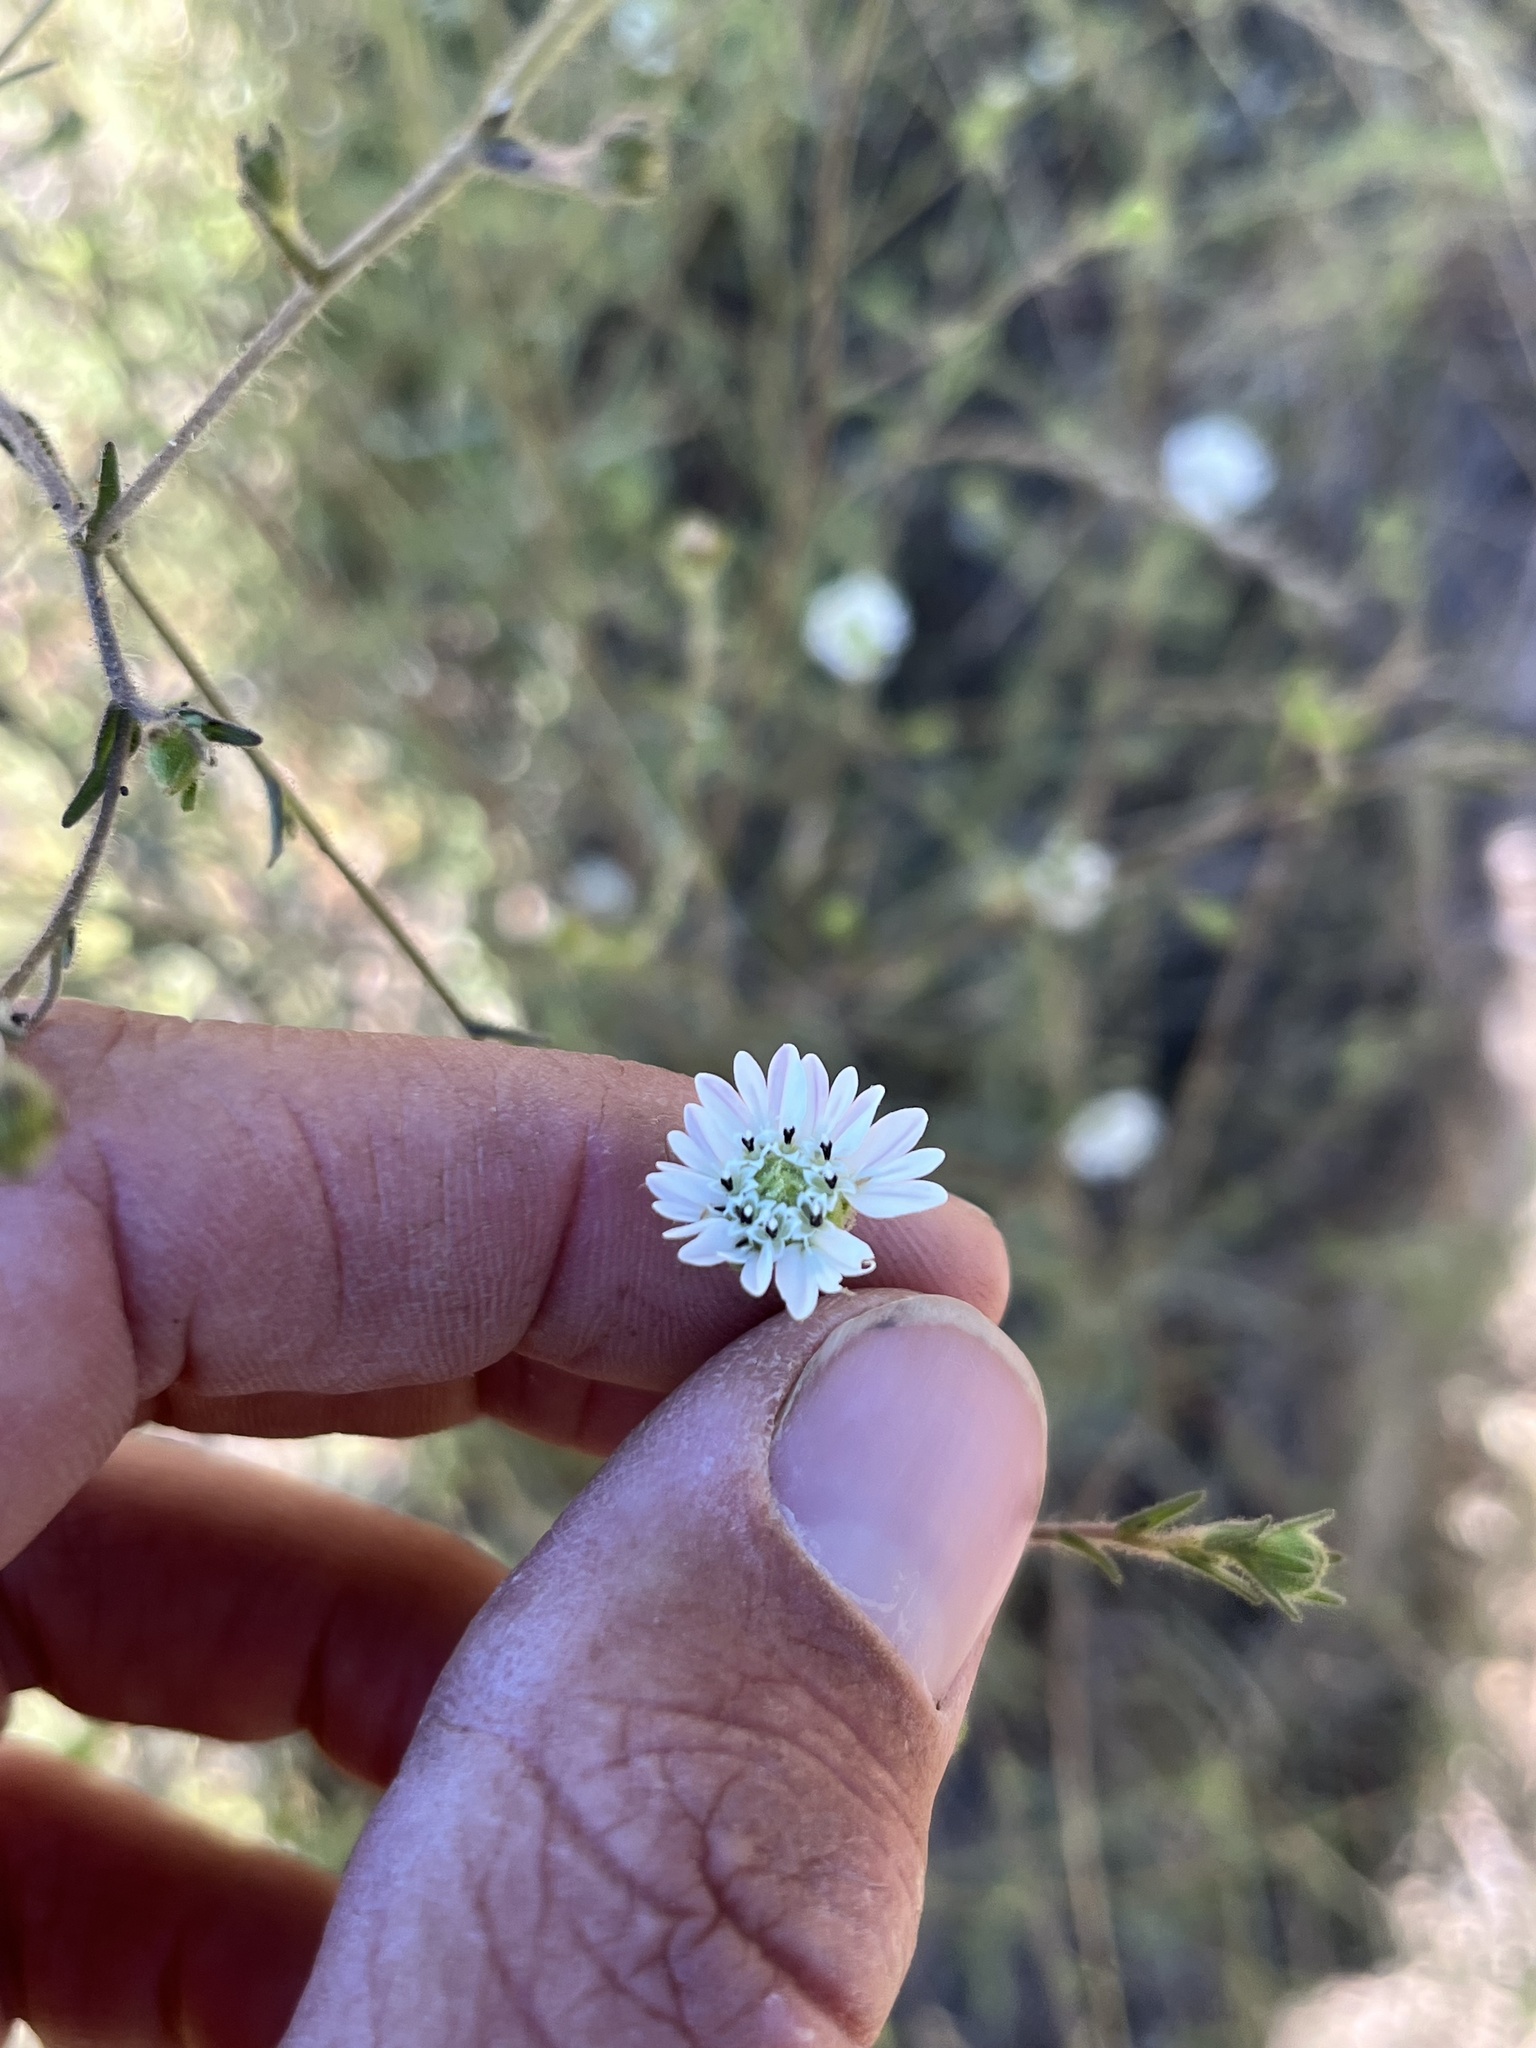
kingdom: Plantae
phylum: Tracheophyta
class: Magnoliopsida
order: Asterales
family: Asteraceae
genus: Hemizonia
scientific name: Hemizonia congesta
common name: Hayfield tarweed
